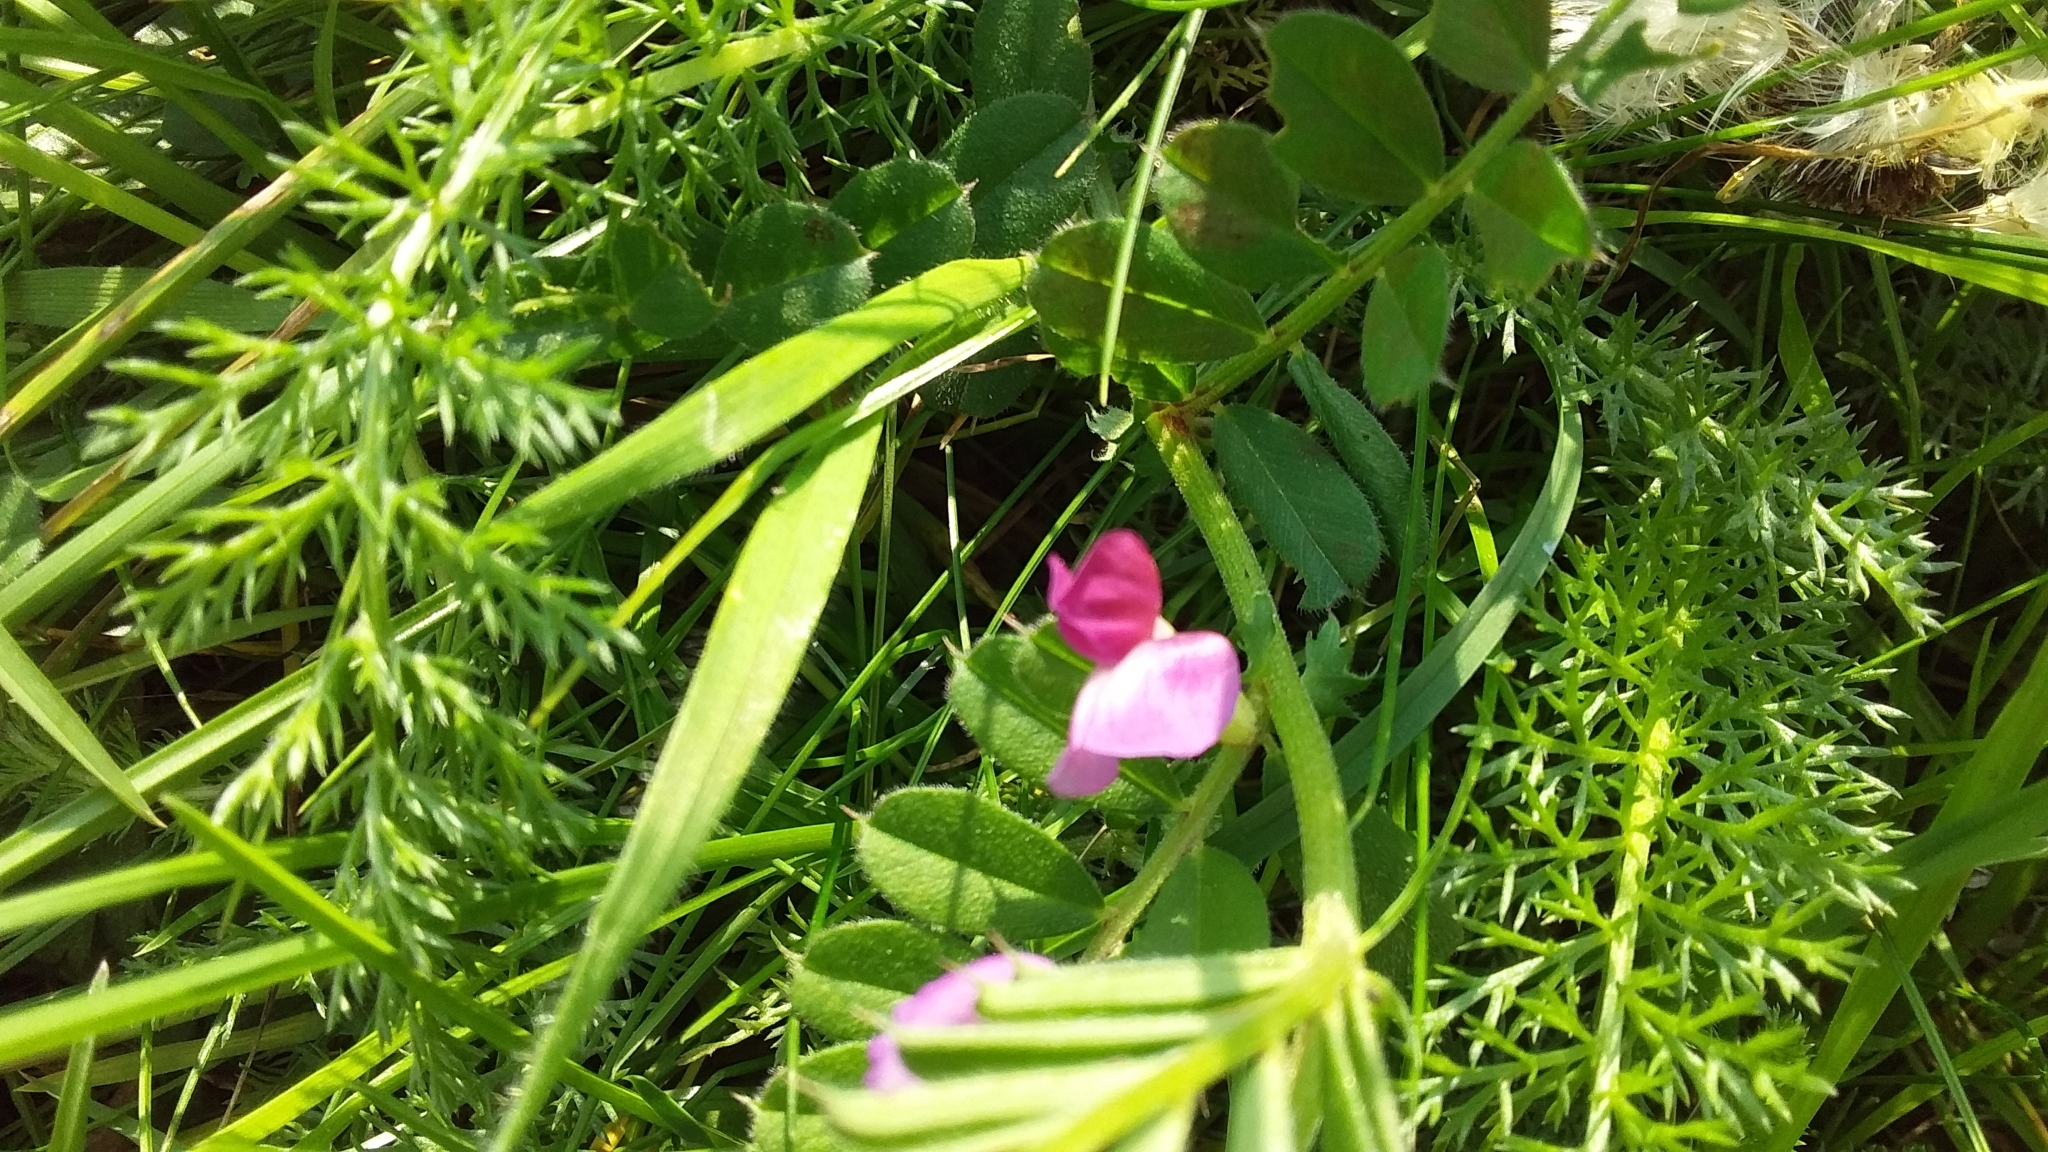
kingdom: Plantae
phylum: Tracheophyta
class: Magnoliopsida
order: Fabales
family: Fabaceae
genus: Vicia
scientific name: Vicia sativa
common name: Garden vetch
